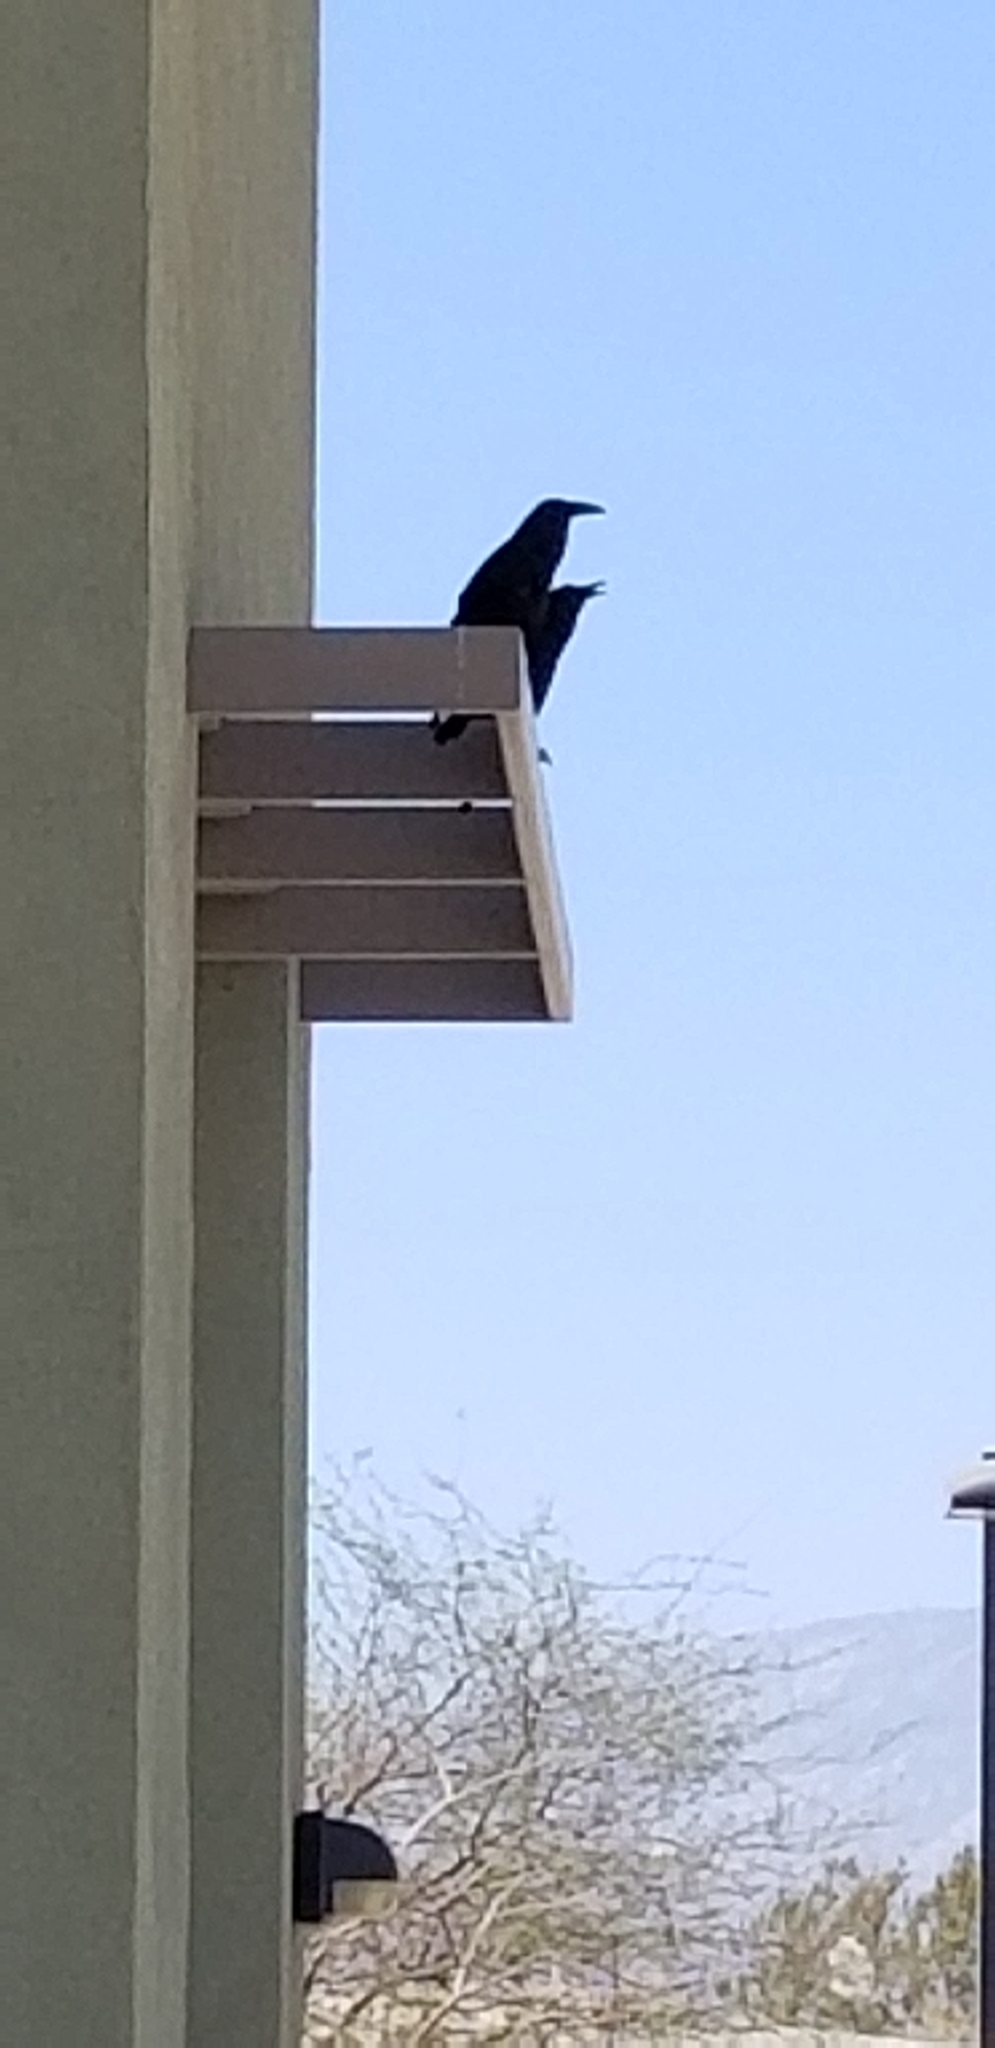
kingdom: Animalia
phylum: Chordata
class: Aves
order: Passeriformes
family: Corvidae
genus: Corvus
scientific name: Corvus corax
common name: Common raven
